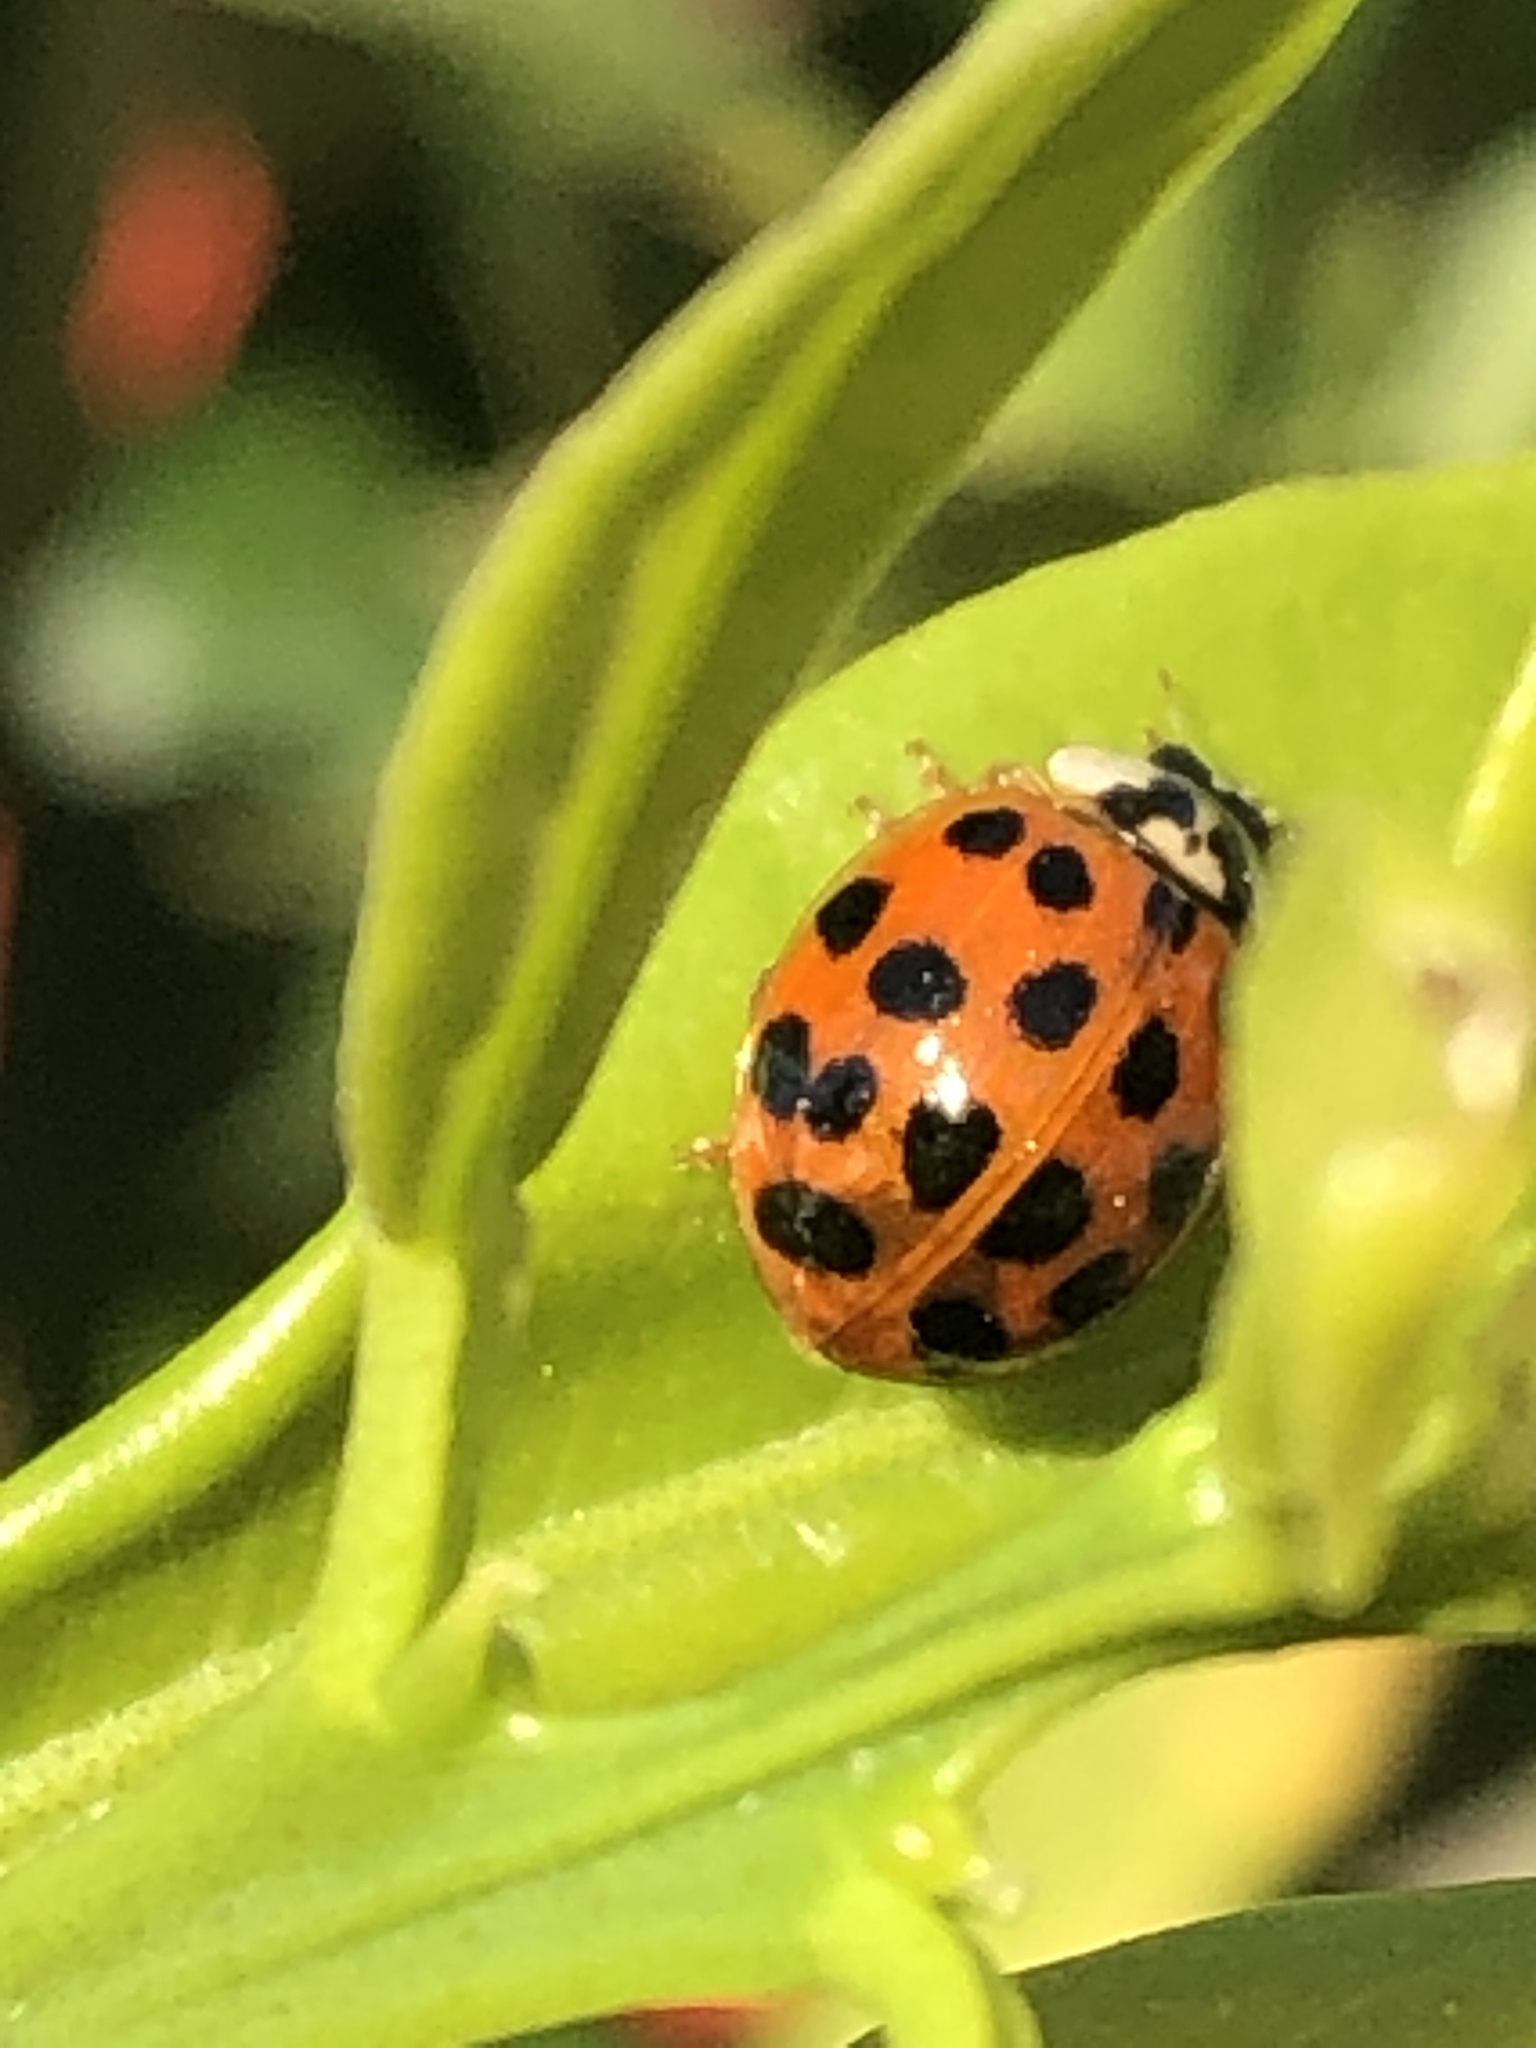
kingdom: Animalia
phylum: Arthropoda
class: Insecta
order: Coleoptera
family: Coccinellidae
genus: Harmonia
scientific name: Harmonia axyridis
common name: Harlequin ladybird
